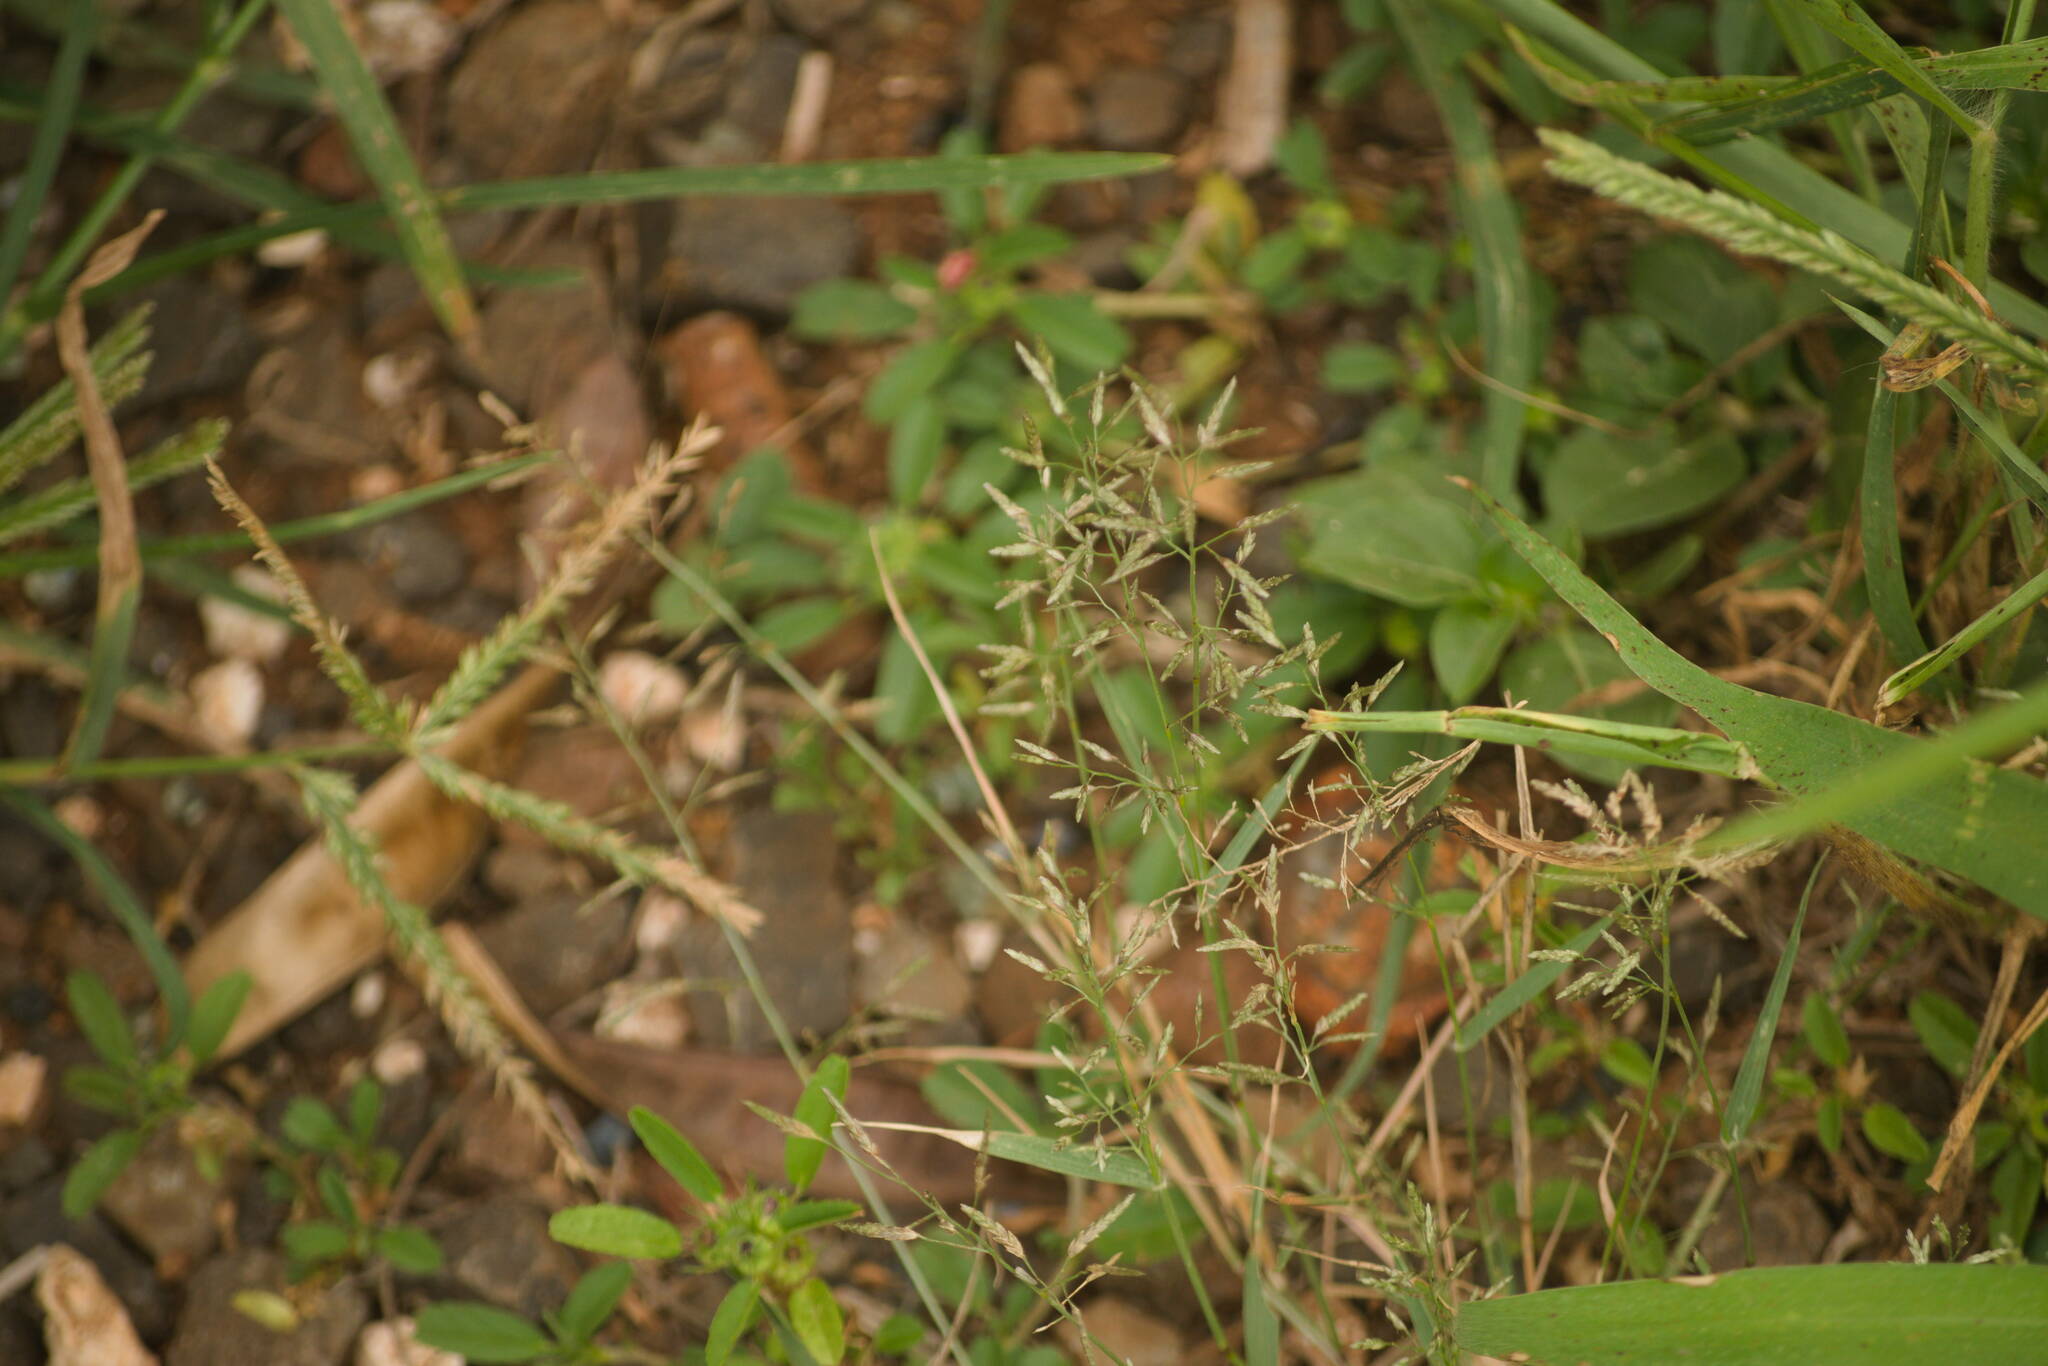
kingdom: Plantae
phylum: Tracheophyta
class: Liliopsida
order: Poales
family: Poaceae
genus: Eragrostis
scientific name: Eragrostis barrelieri
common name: Mediterranean lovegrass
